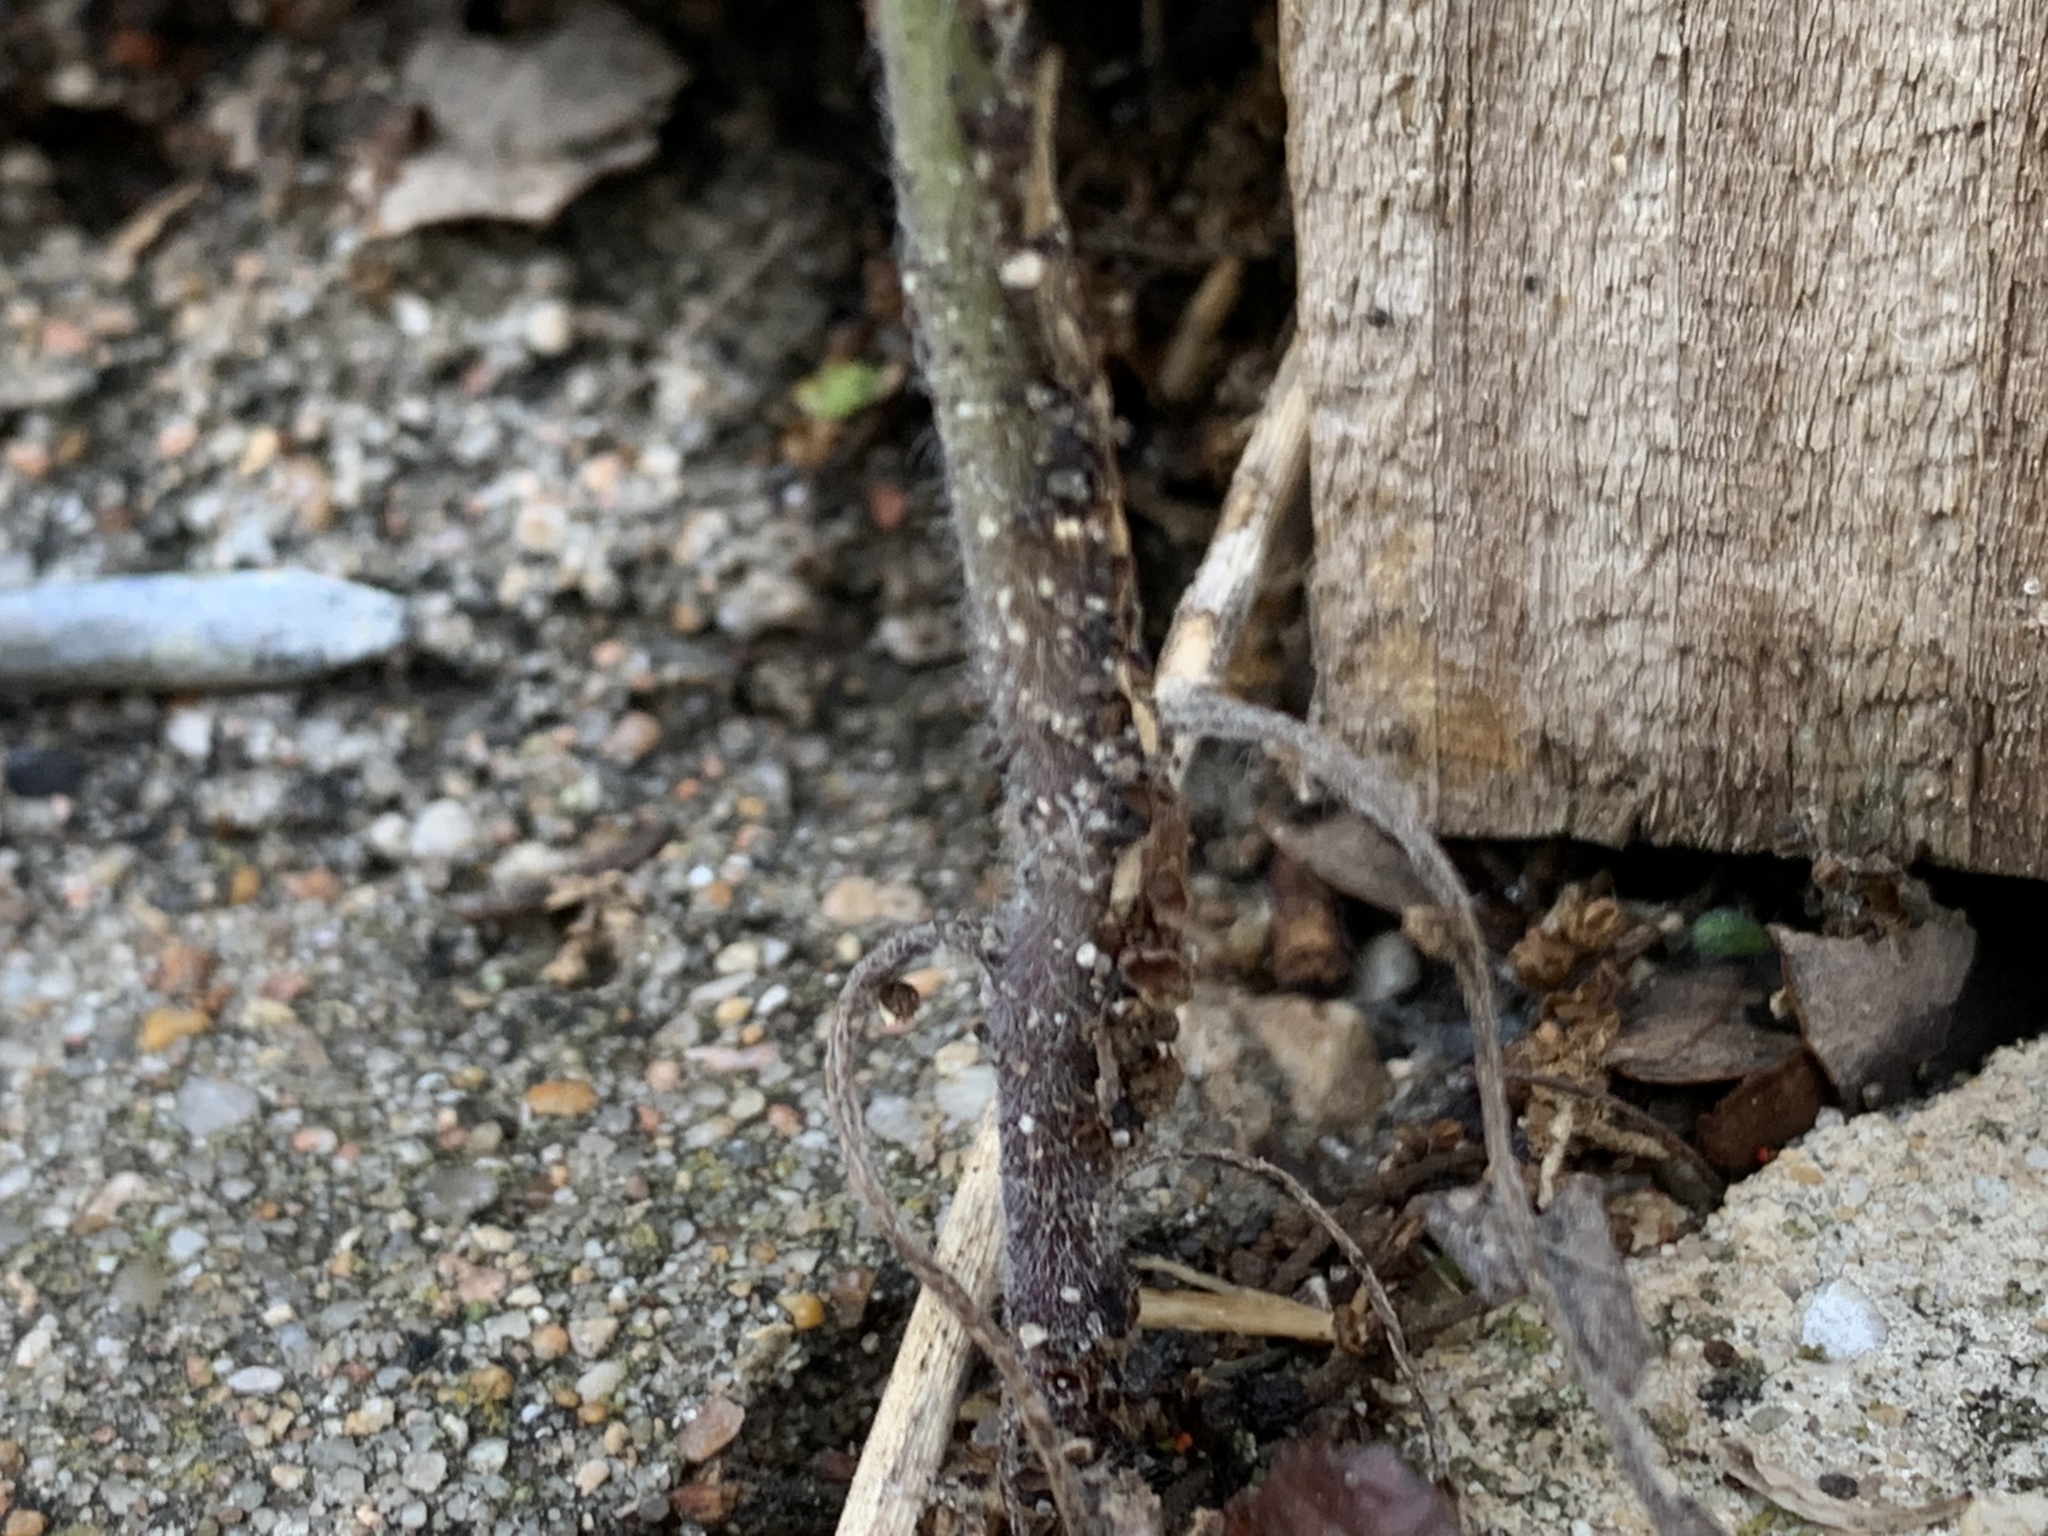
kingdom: Plantae
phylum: Tracheophyta
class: Magnoliopsida
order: Boraginales
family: Hydrophyllaceae
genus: Phacelia
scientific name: Phacelia congesta
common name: Blue curls
